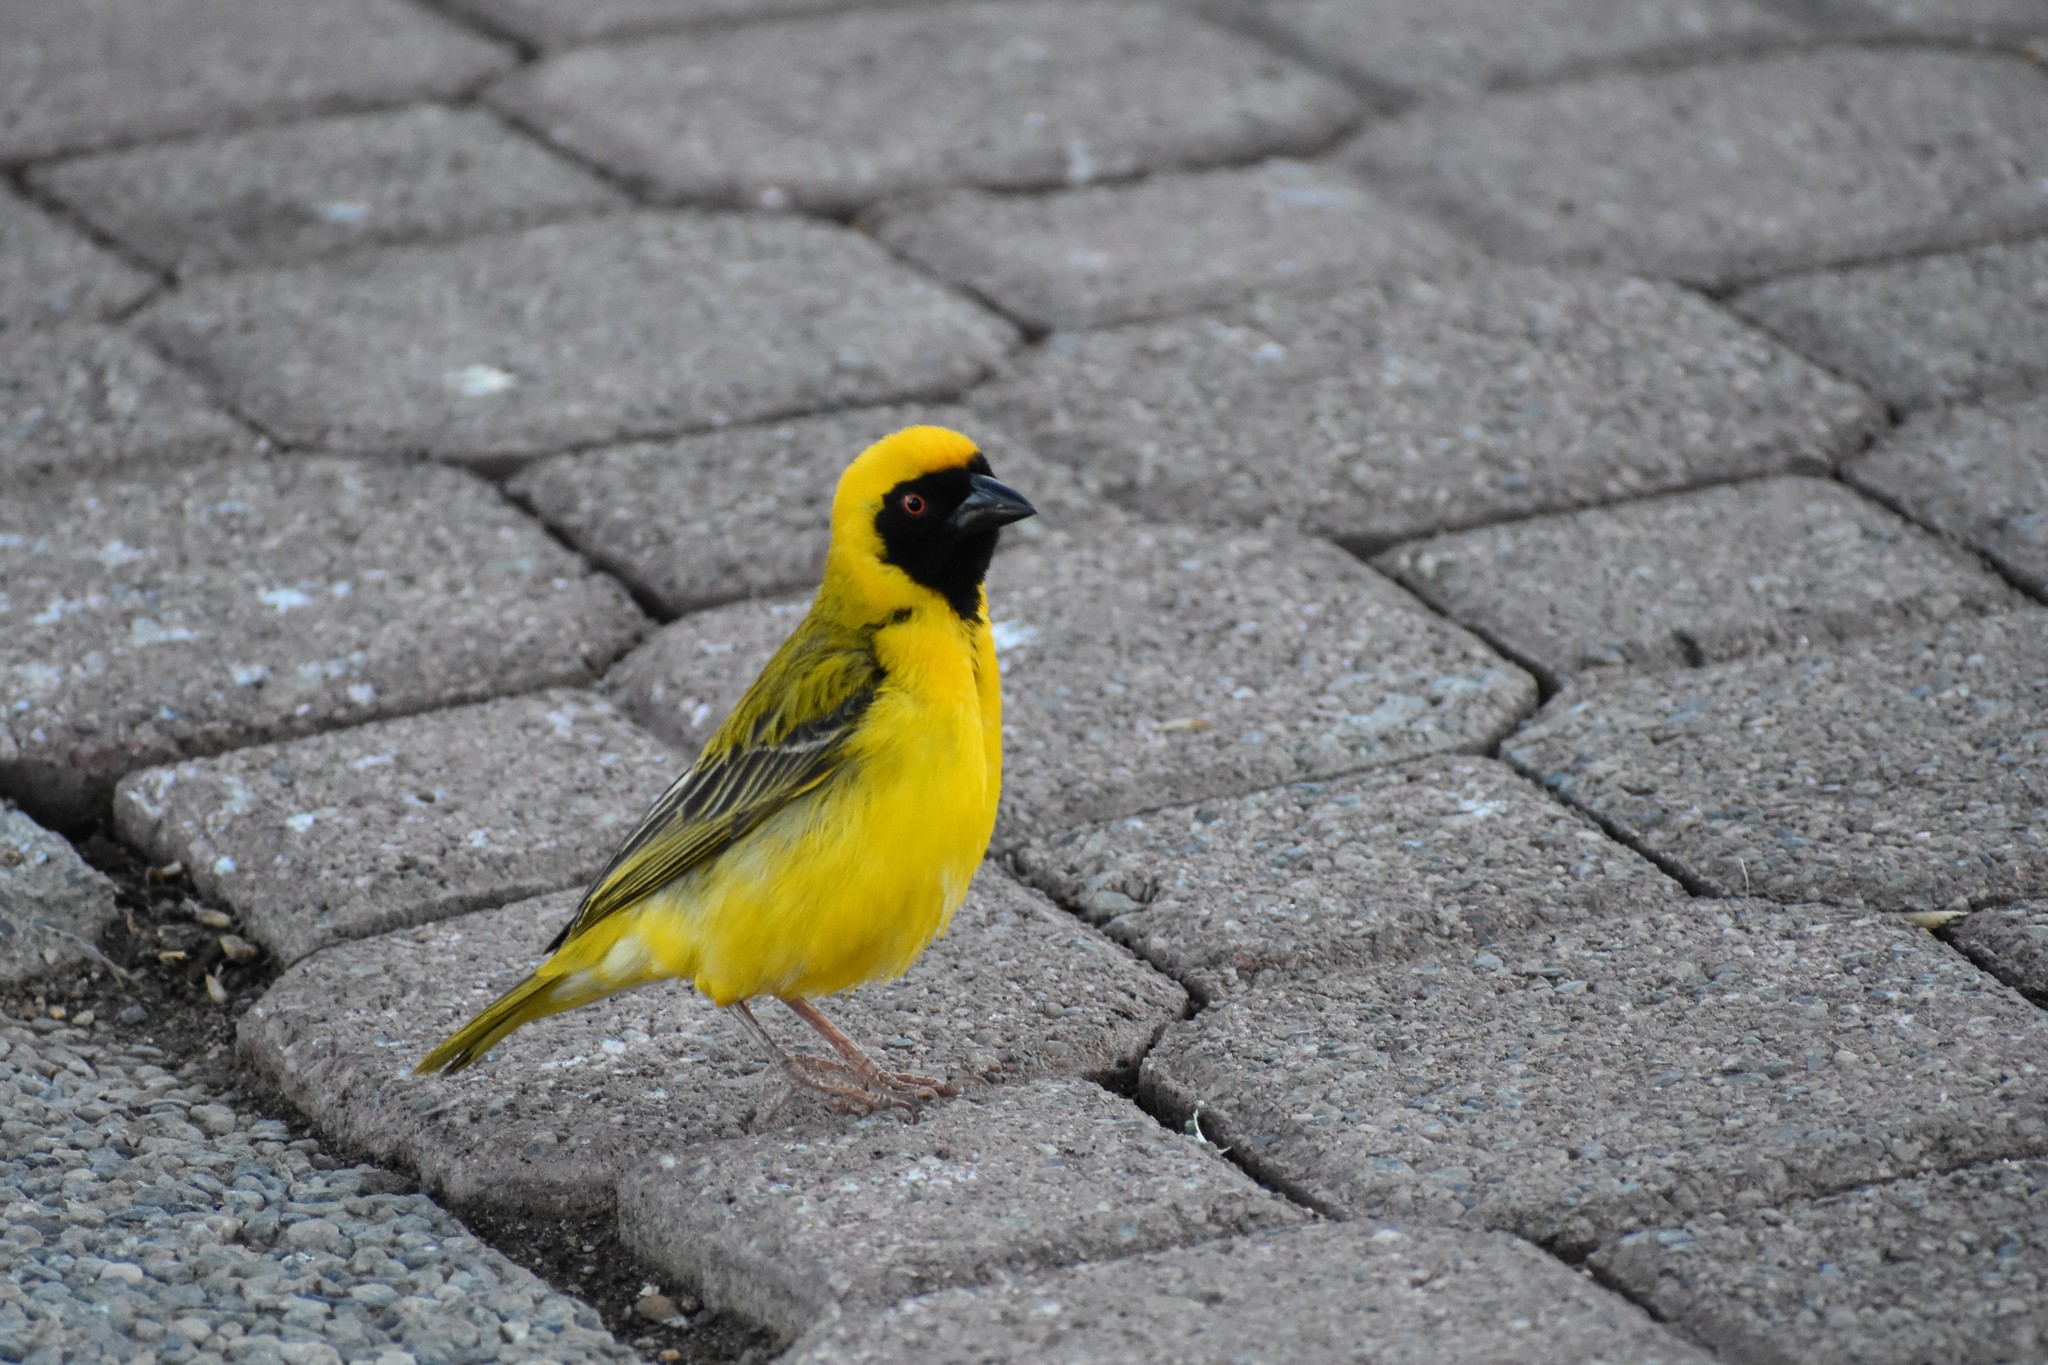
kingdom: Animalia
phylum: Chordata
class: Aves
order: Passeriformes
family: Ploceidae
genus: Ploceus
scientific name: Ploceus velatus
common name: Southern masked weaver
